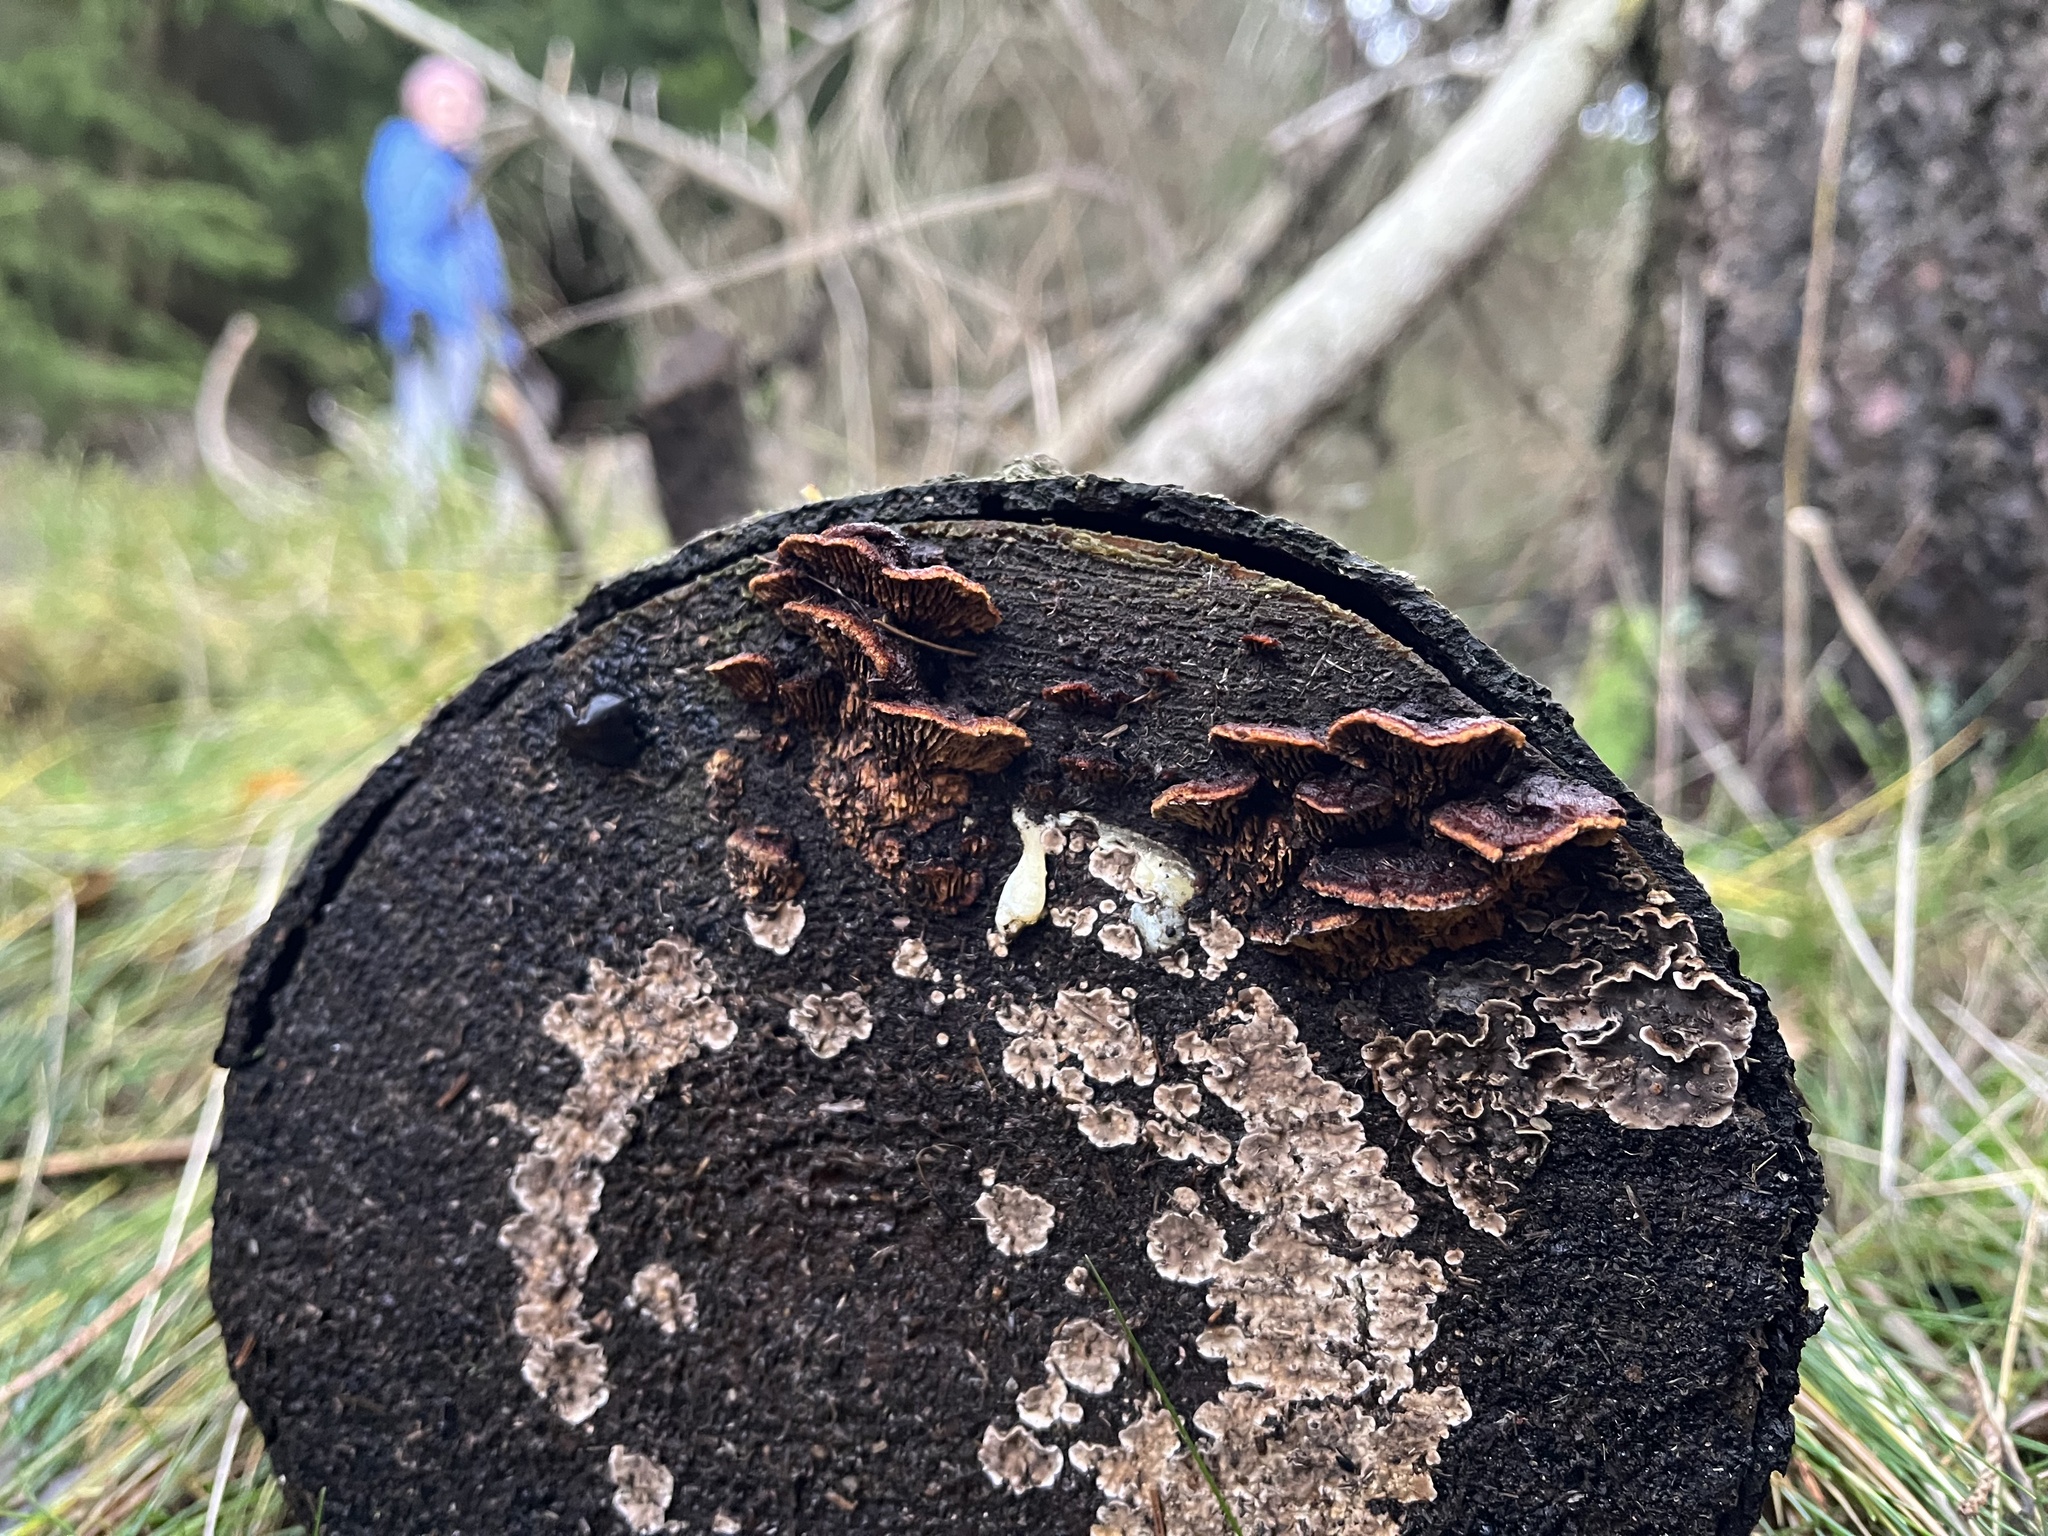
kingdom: Fungi
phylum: Basidiomycota
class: Agaricomycetes
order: Gloeophyllales
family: Gloeophyllaceae
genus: Gloeophyllum
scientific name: Gloeophyllum sepiarium
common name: Conifer mazegill
